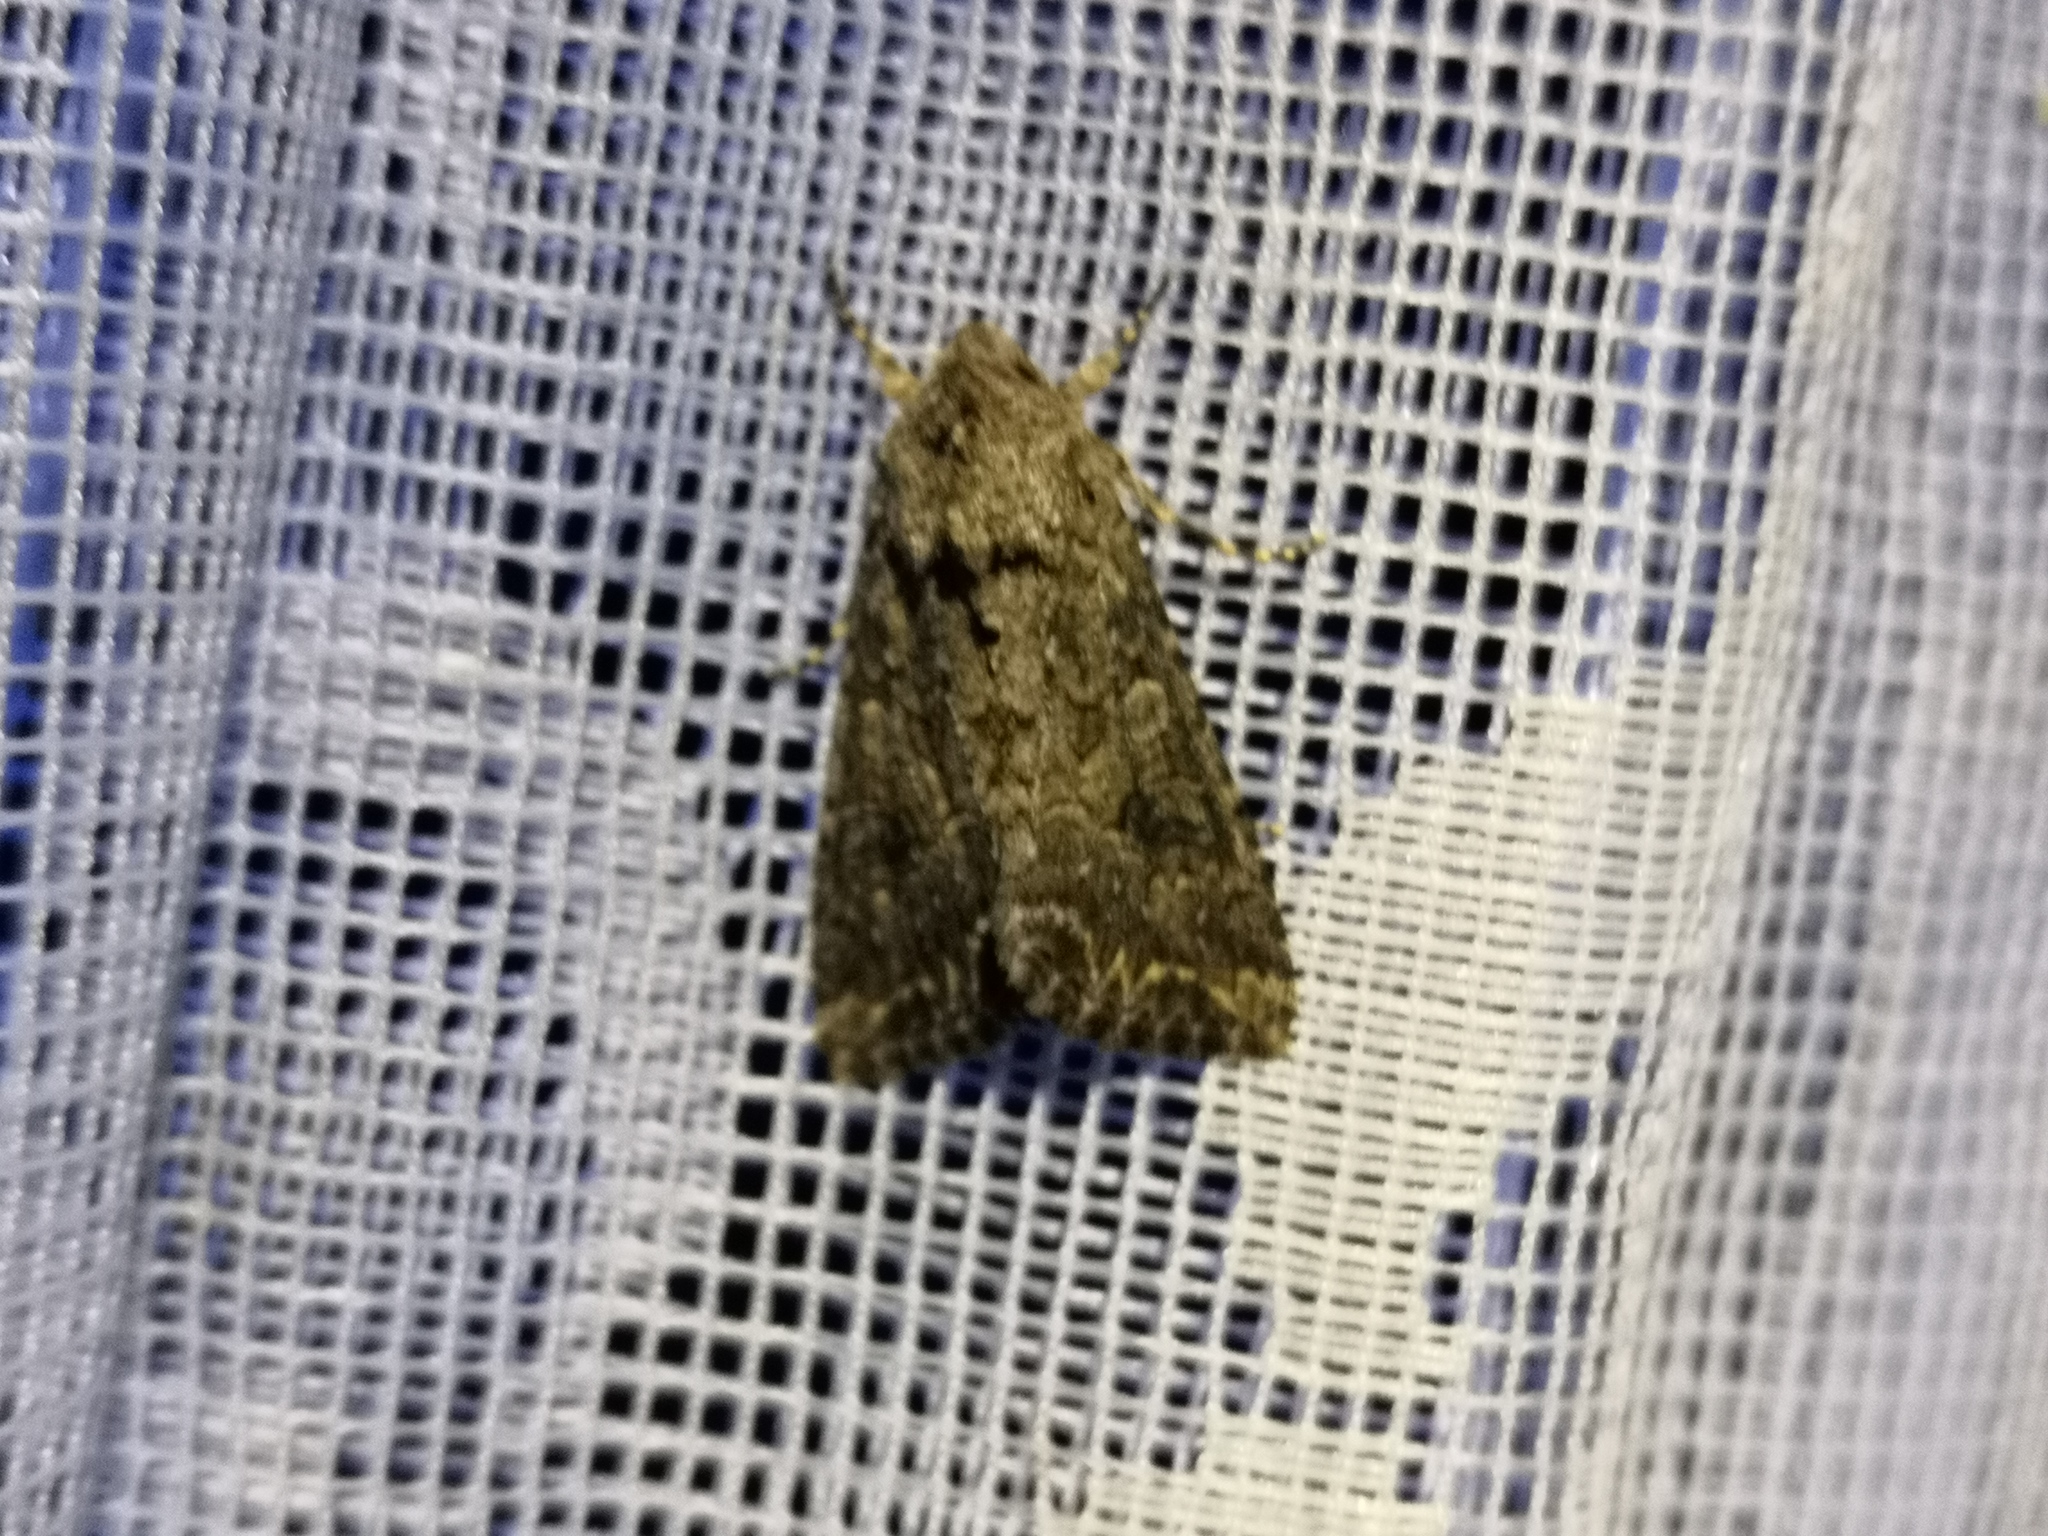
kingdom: Animalia
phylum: Arthropoda
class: Insecta
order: Lepidoptera
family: Noctuidae
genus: Anarta
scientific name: Anarta trifolii
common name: Clover cutworm moth
